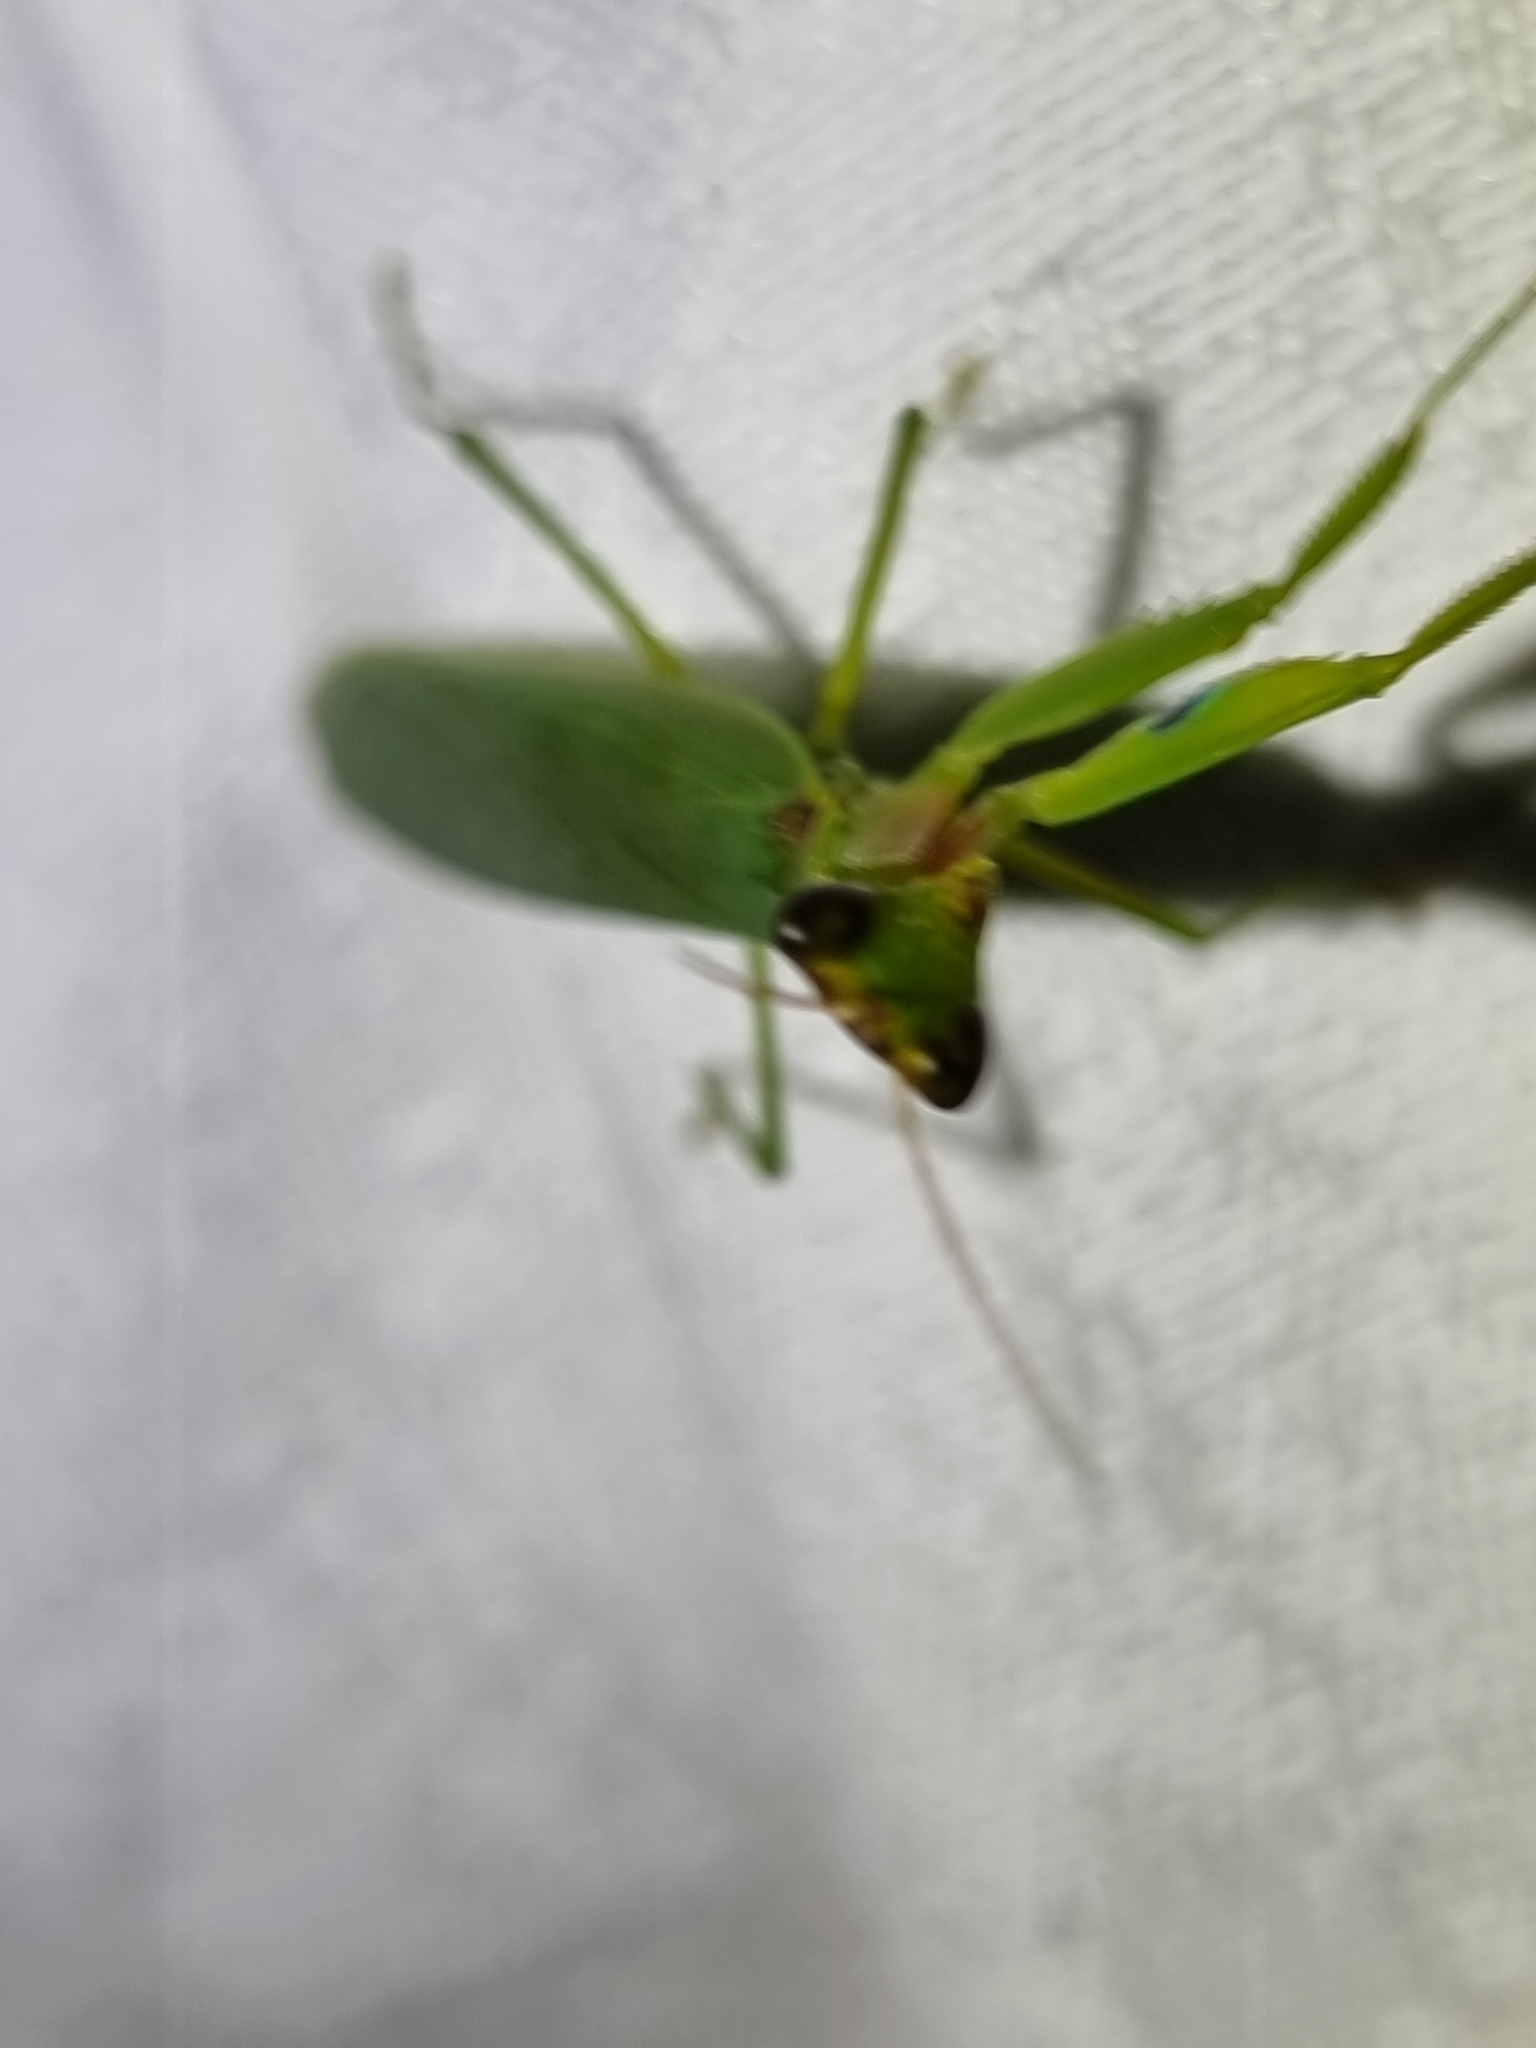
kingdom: Animalia
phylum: Arthropoda
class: Insecta
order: Mantodea
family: Mantidae
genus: Orthodera
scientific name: Orthodera ministralis
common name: Mantis
